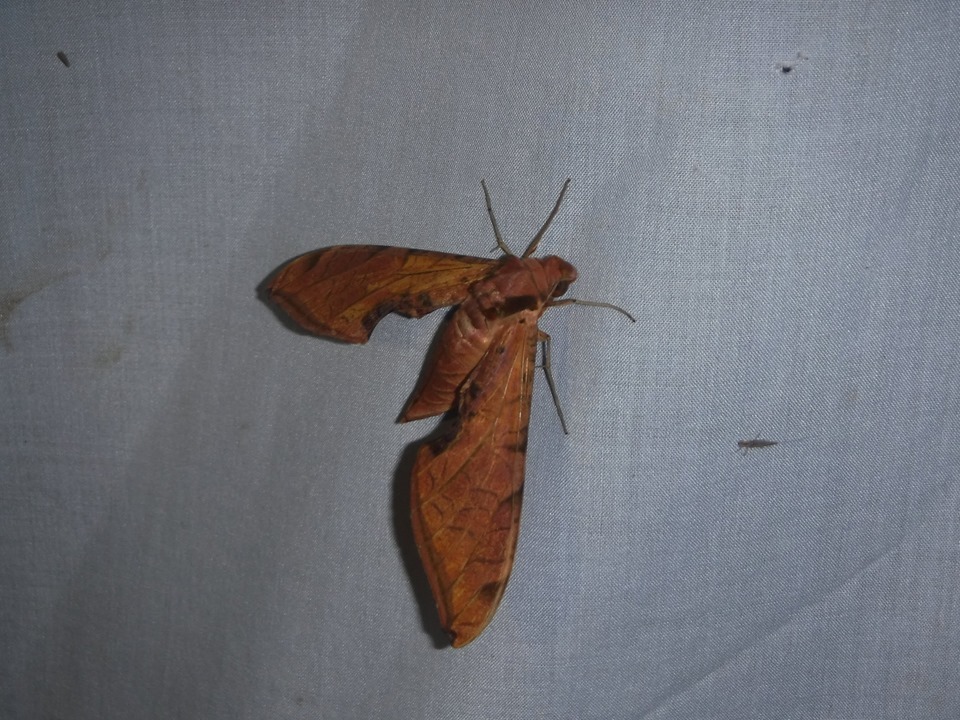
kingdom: Animalia
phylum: Arthropoda
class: Insecta
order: Lepidoptera
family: Sphingidae
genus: Protambulyx
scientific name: Protambulyx strigilis
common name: Streaked sphinx
